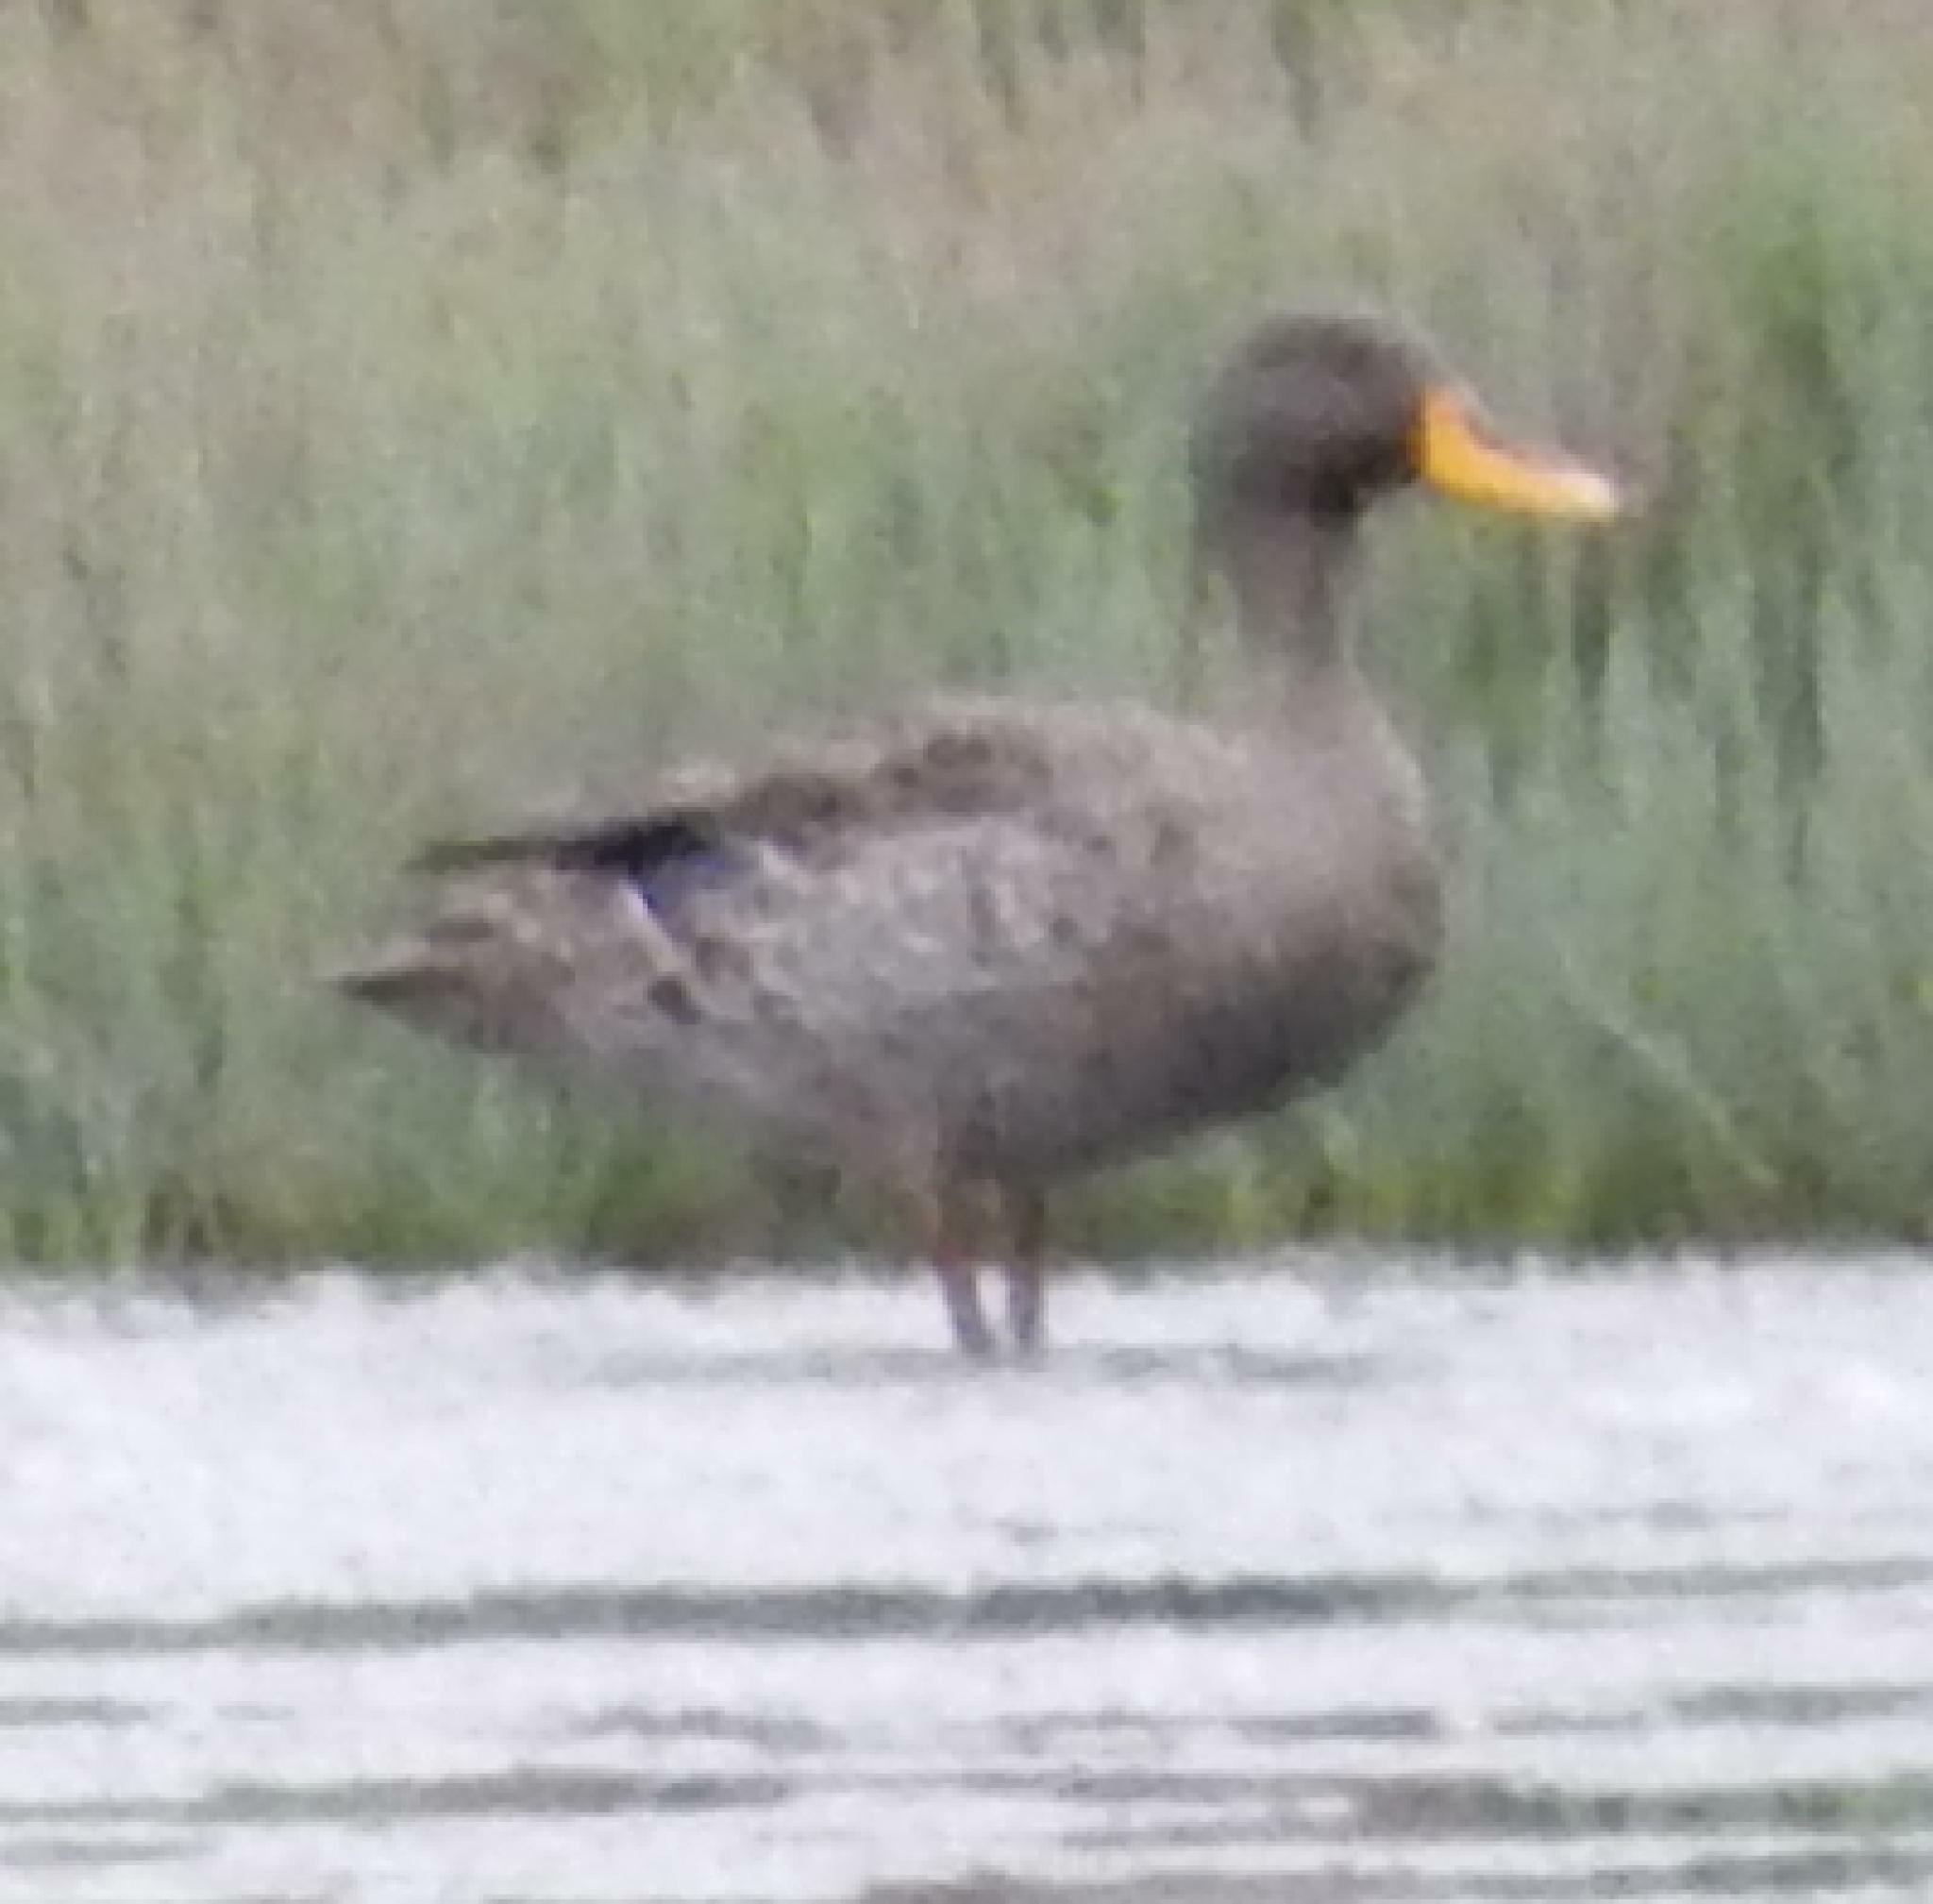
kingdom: Animalia
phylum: Chordata
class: Aves
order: Anseriformes
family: Anatidae
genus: Anas
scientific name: Anas undulata
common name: Yellow-billed duck
